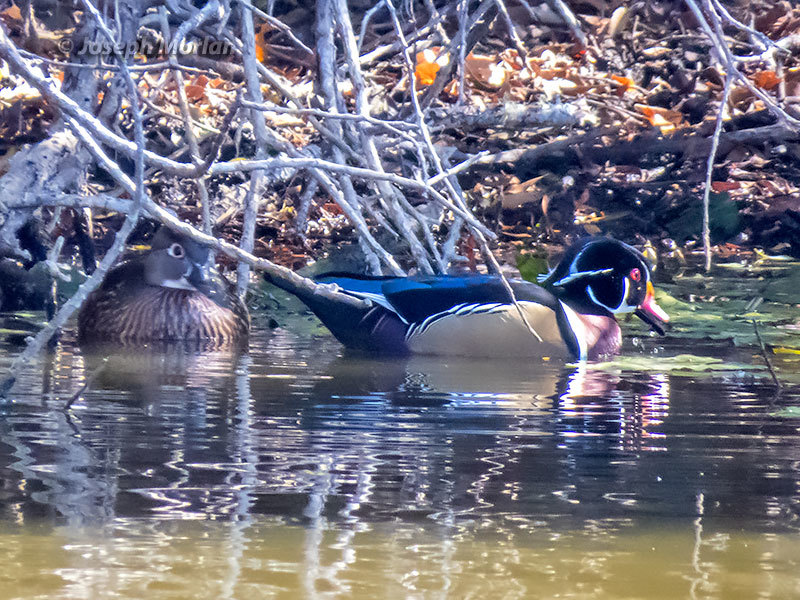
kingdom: Animalia
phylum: Chordata
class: Aves
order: Anseriformes
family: Anatidae
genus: Aix
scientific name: Aix sponsa
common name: Wood duck
